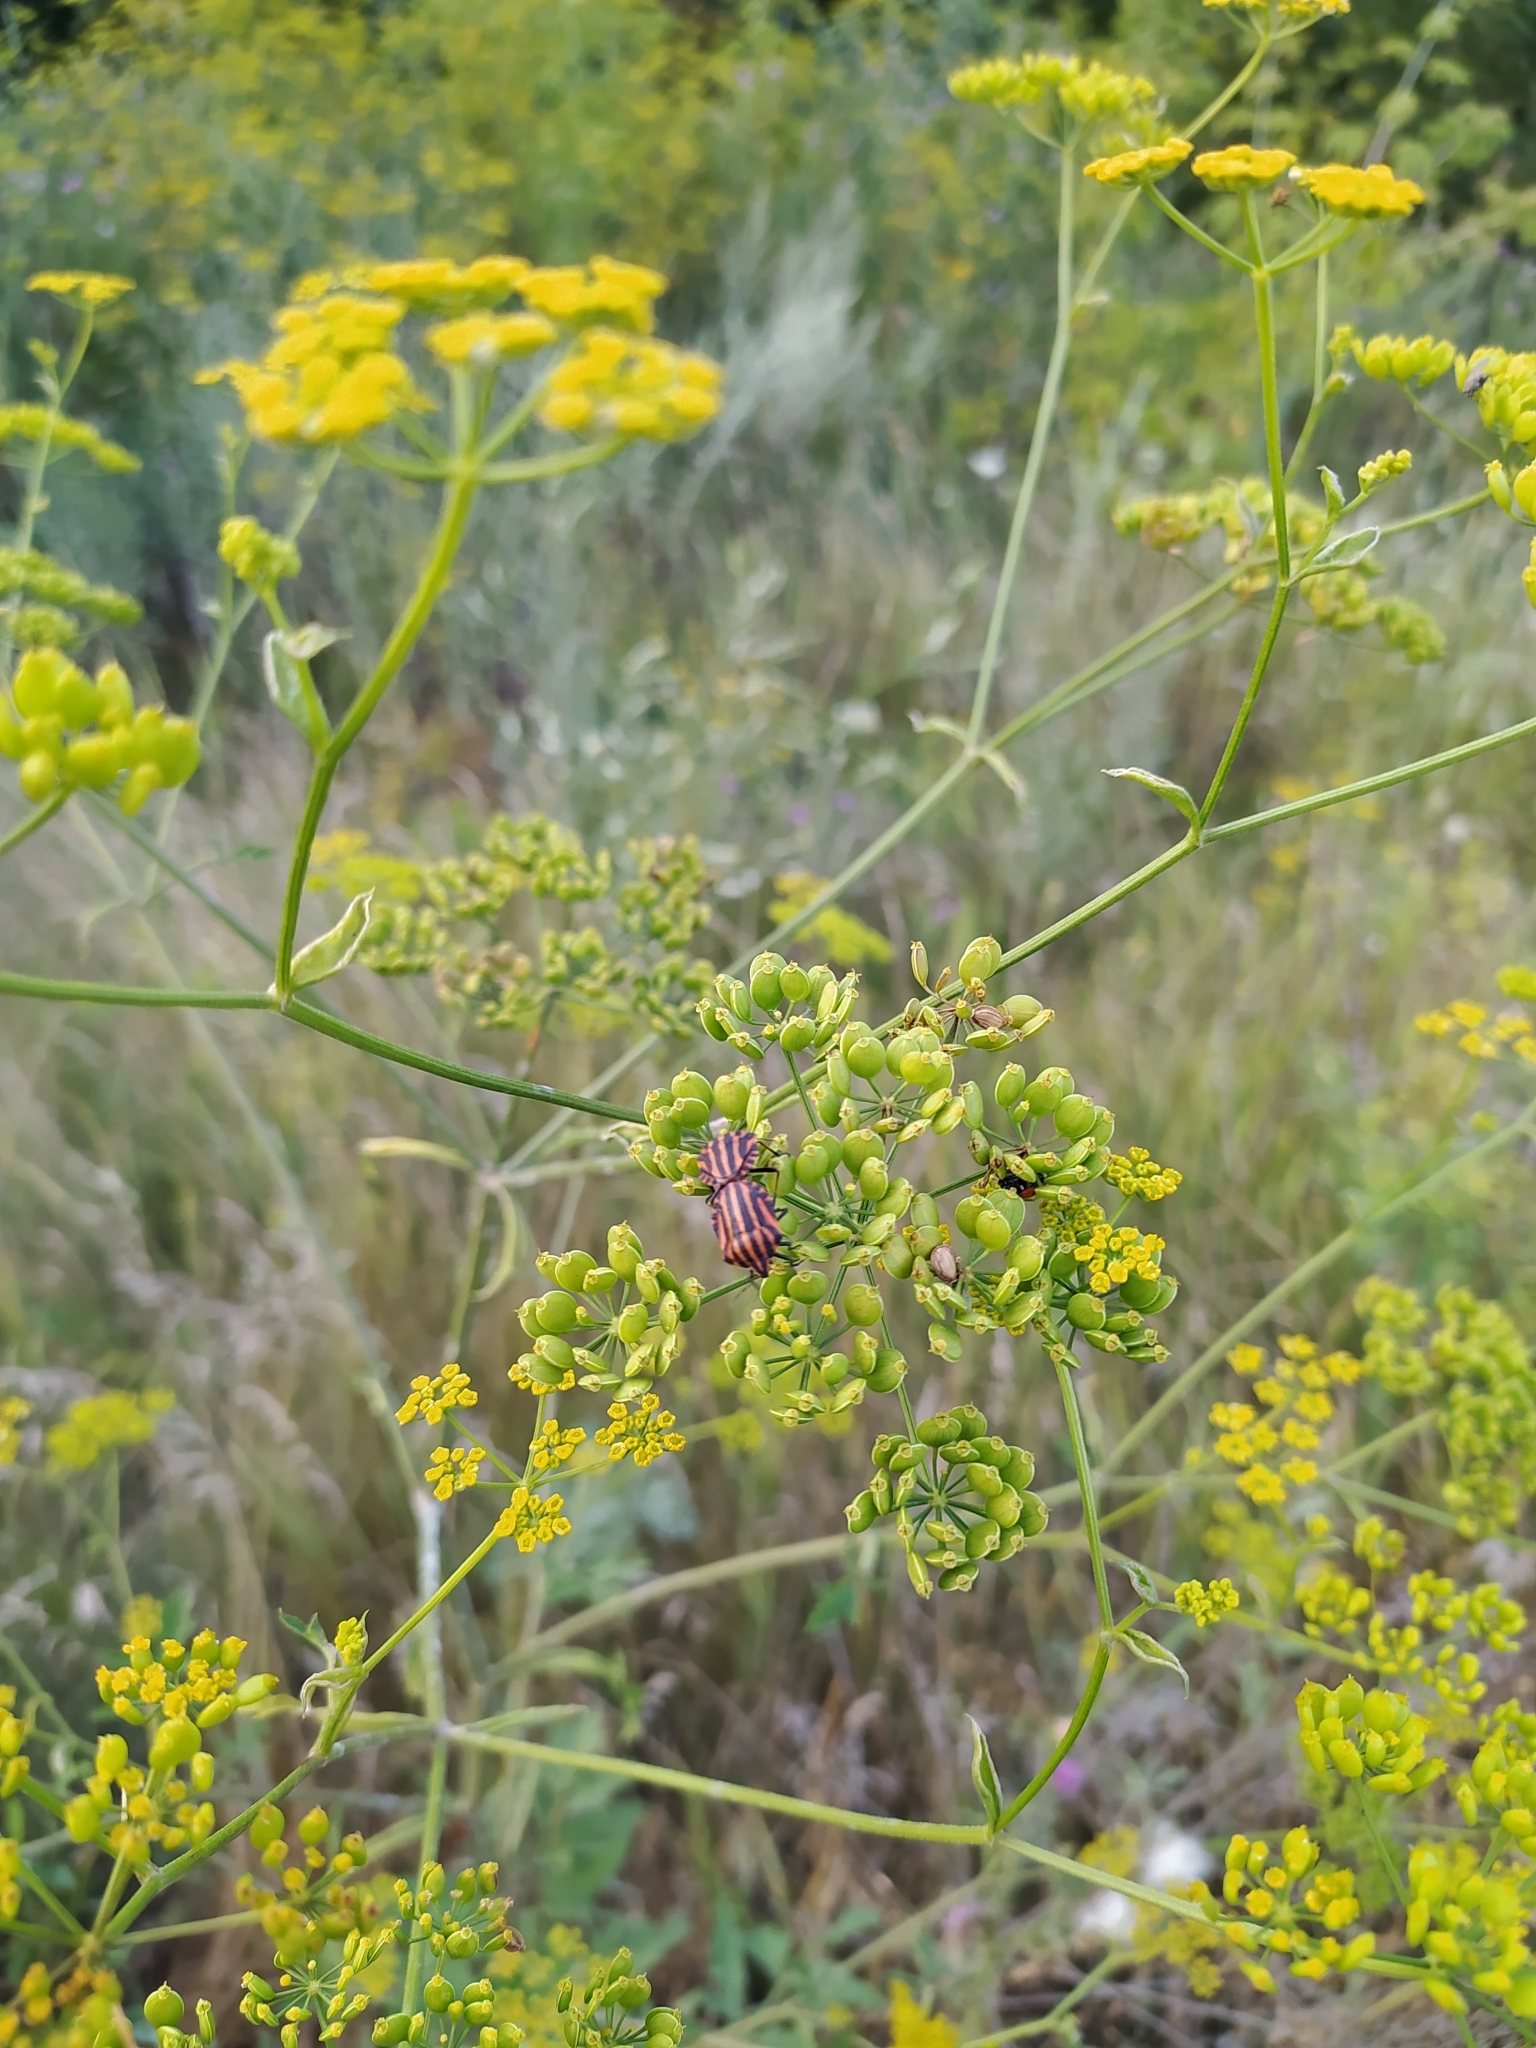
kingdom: Animalia
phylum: Arthropoda
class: Insecta
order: Hemiptera
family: Pentatomidae
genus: Graphosoma
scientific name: Graphosoma italicum
